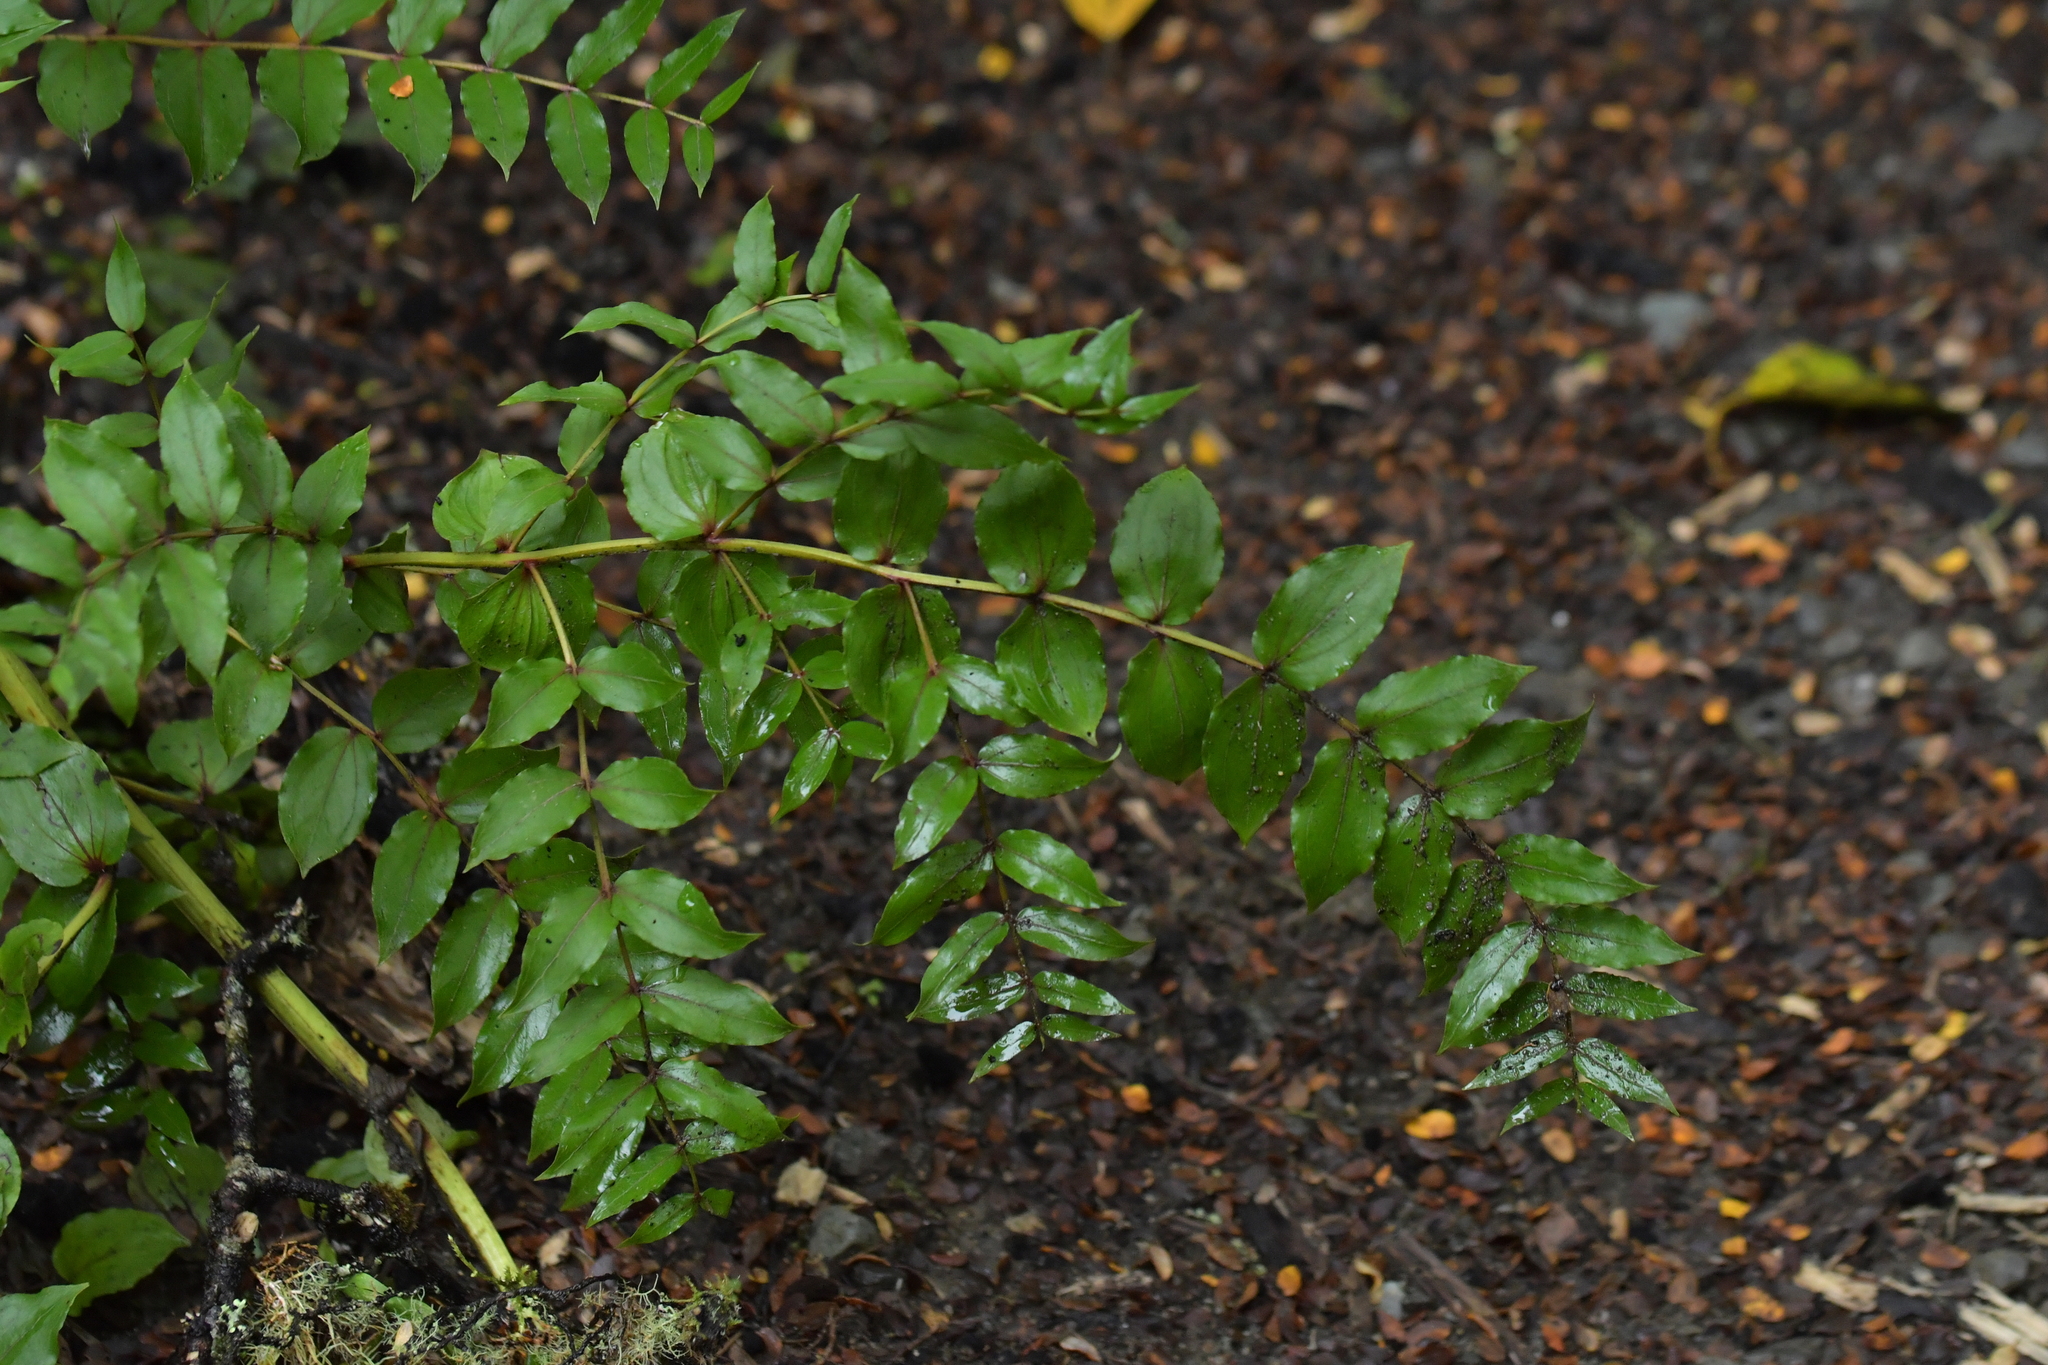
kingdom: Plantae
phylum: Tracheophyta
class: Magnoliopsida
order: Cucurbitales
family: Coriariaceae
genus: Coriaria
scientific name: Coriaria arborea
